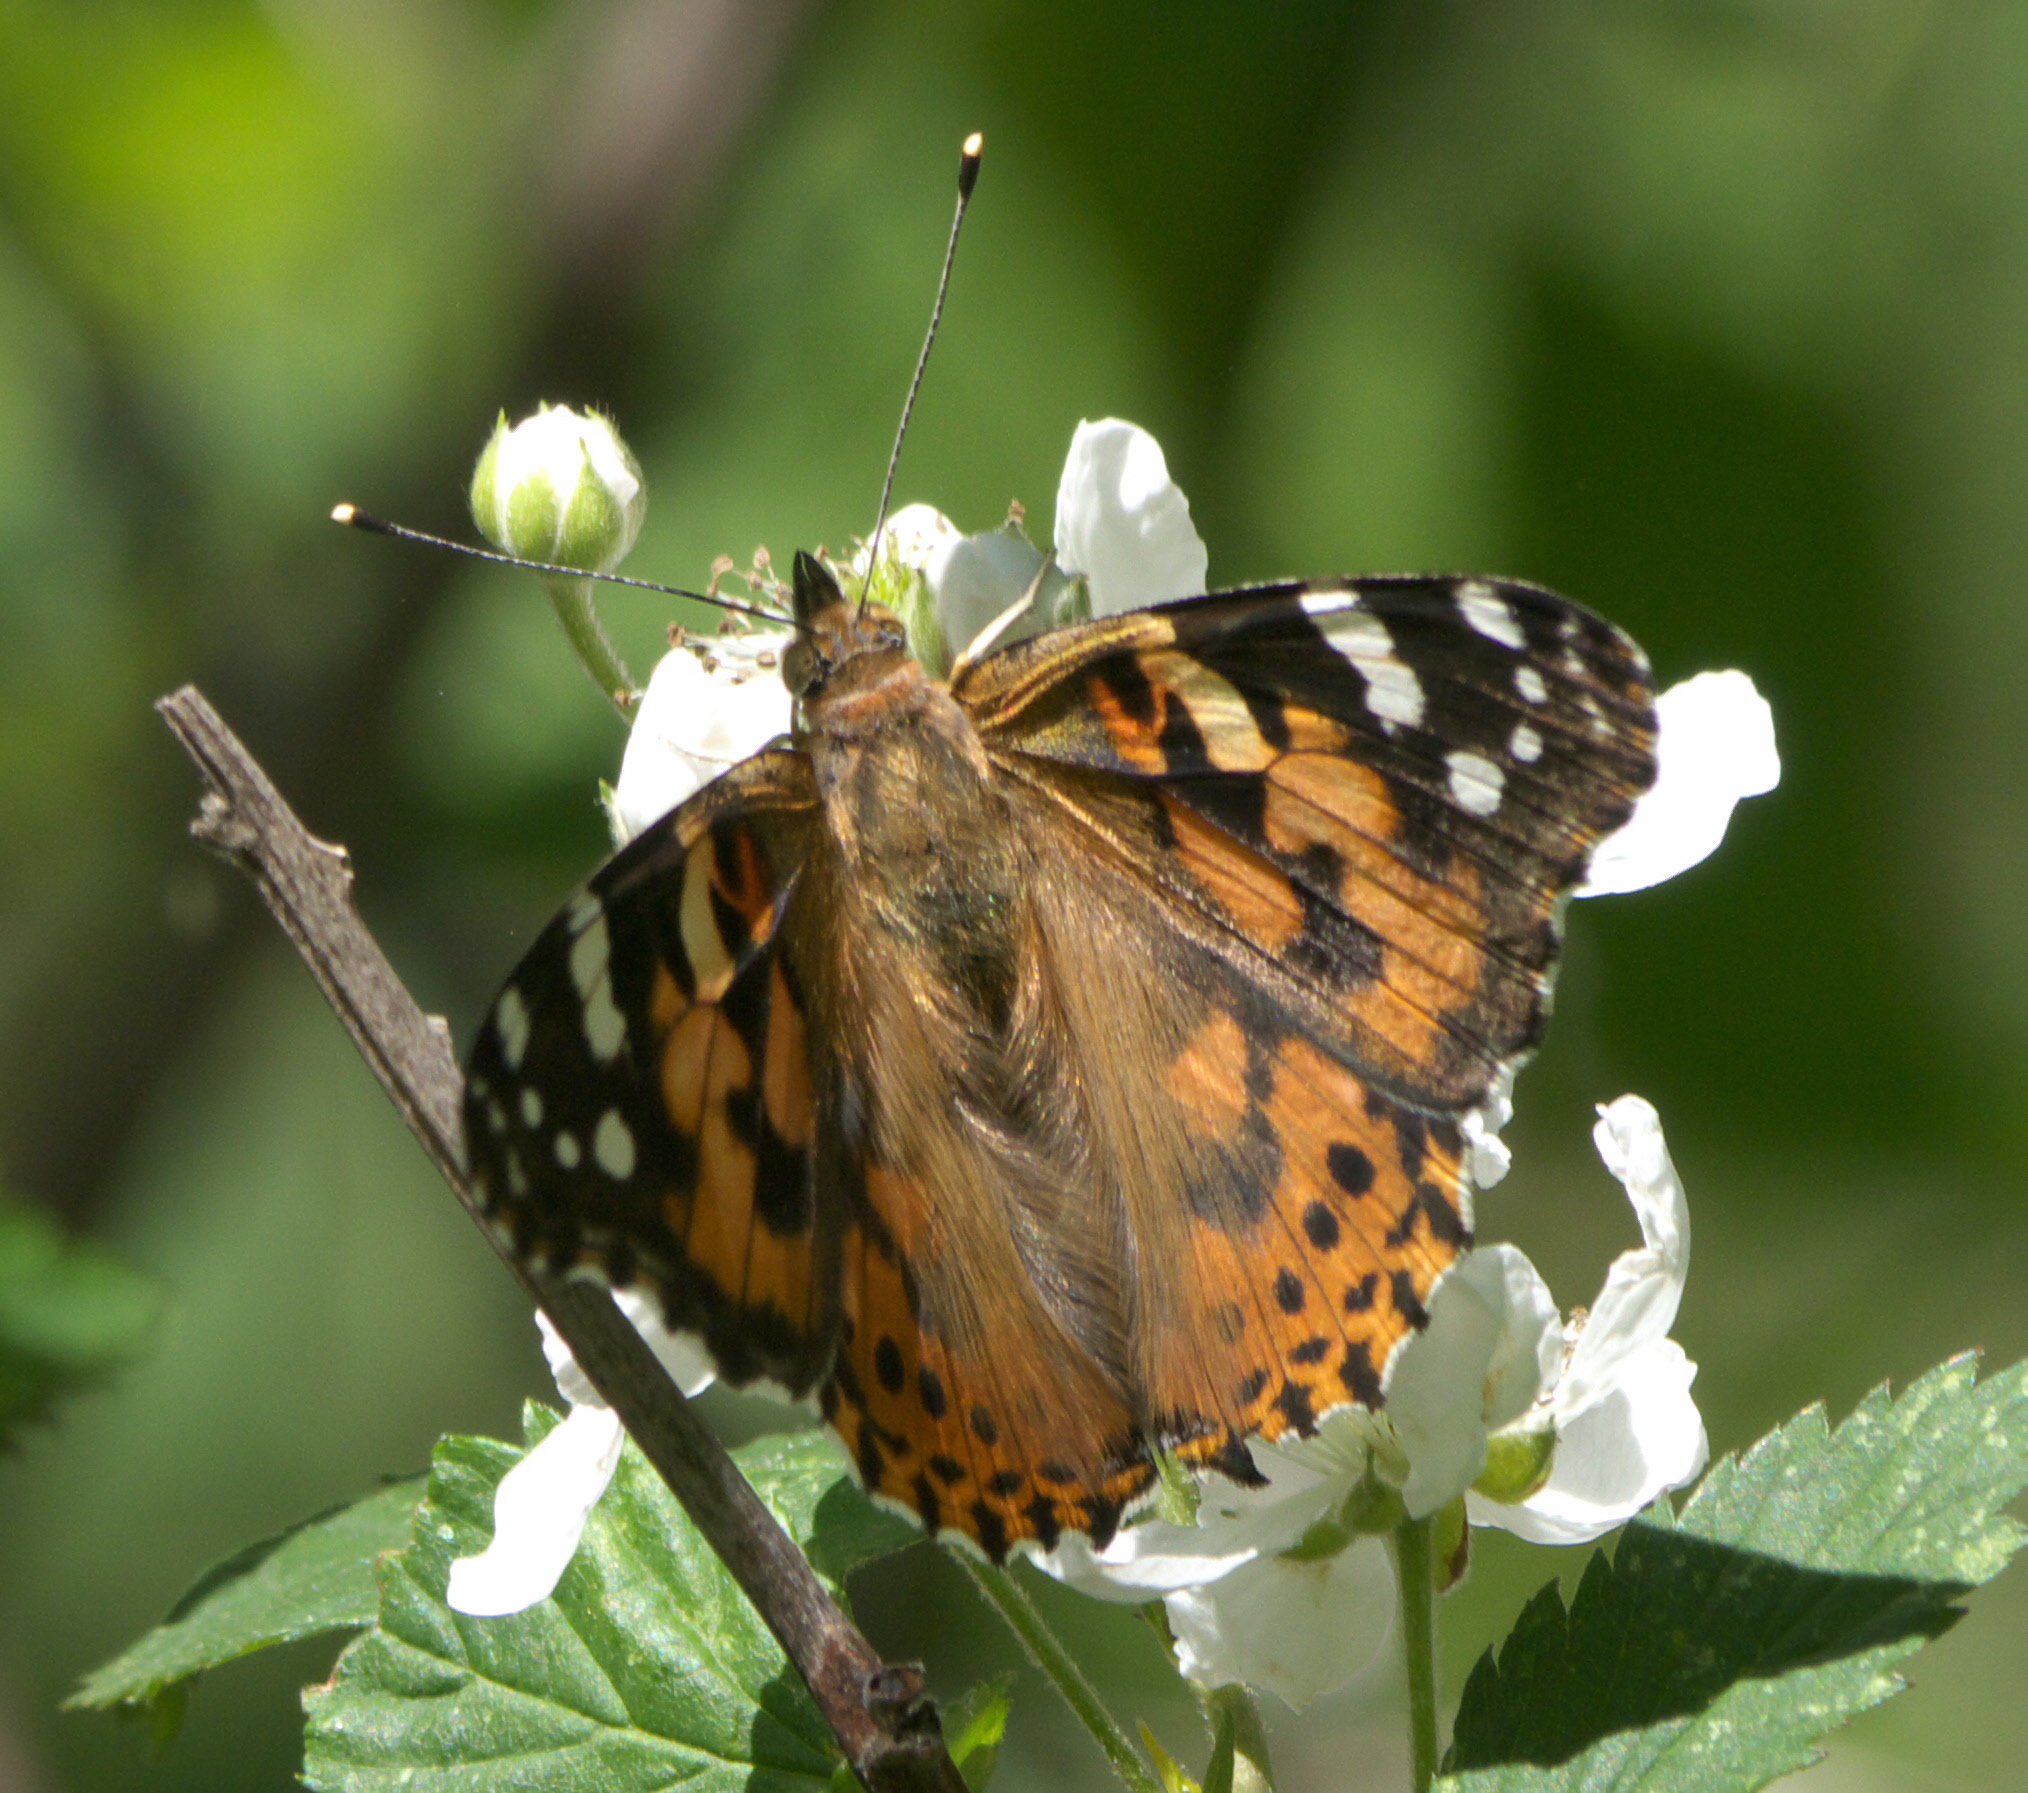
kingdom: Animalia
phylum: Arthropoda
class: Insecta
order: Lepidoptera
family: Nymphalidae
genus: Vanessa
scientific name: Vanessa cardui
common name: Painted lady
